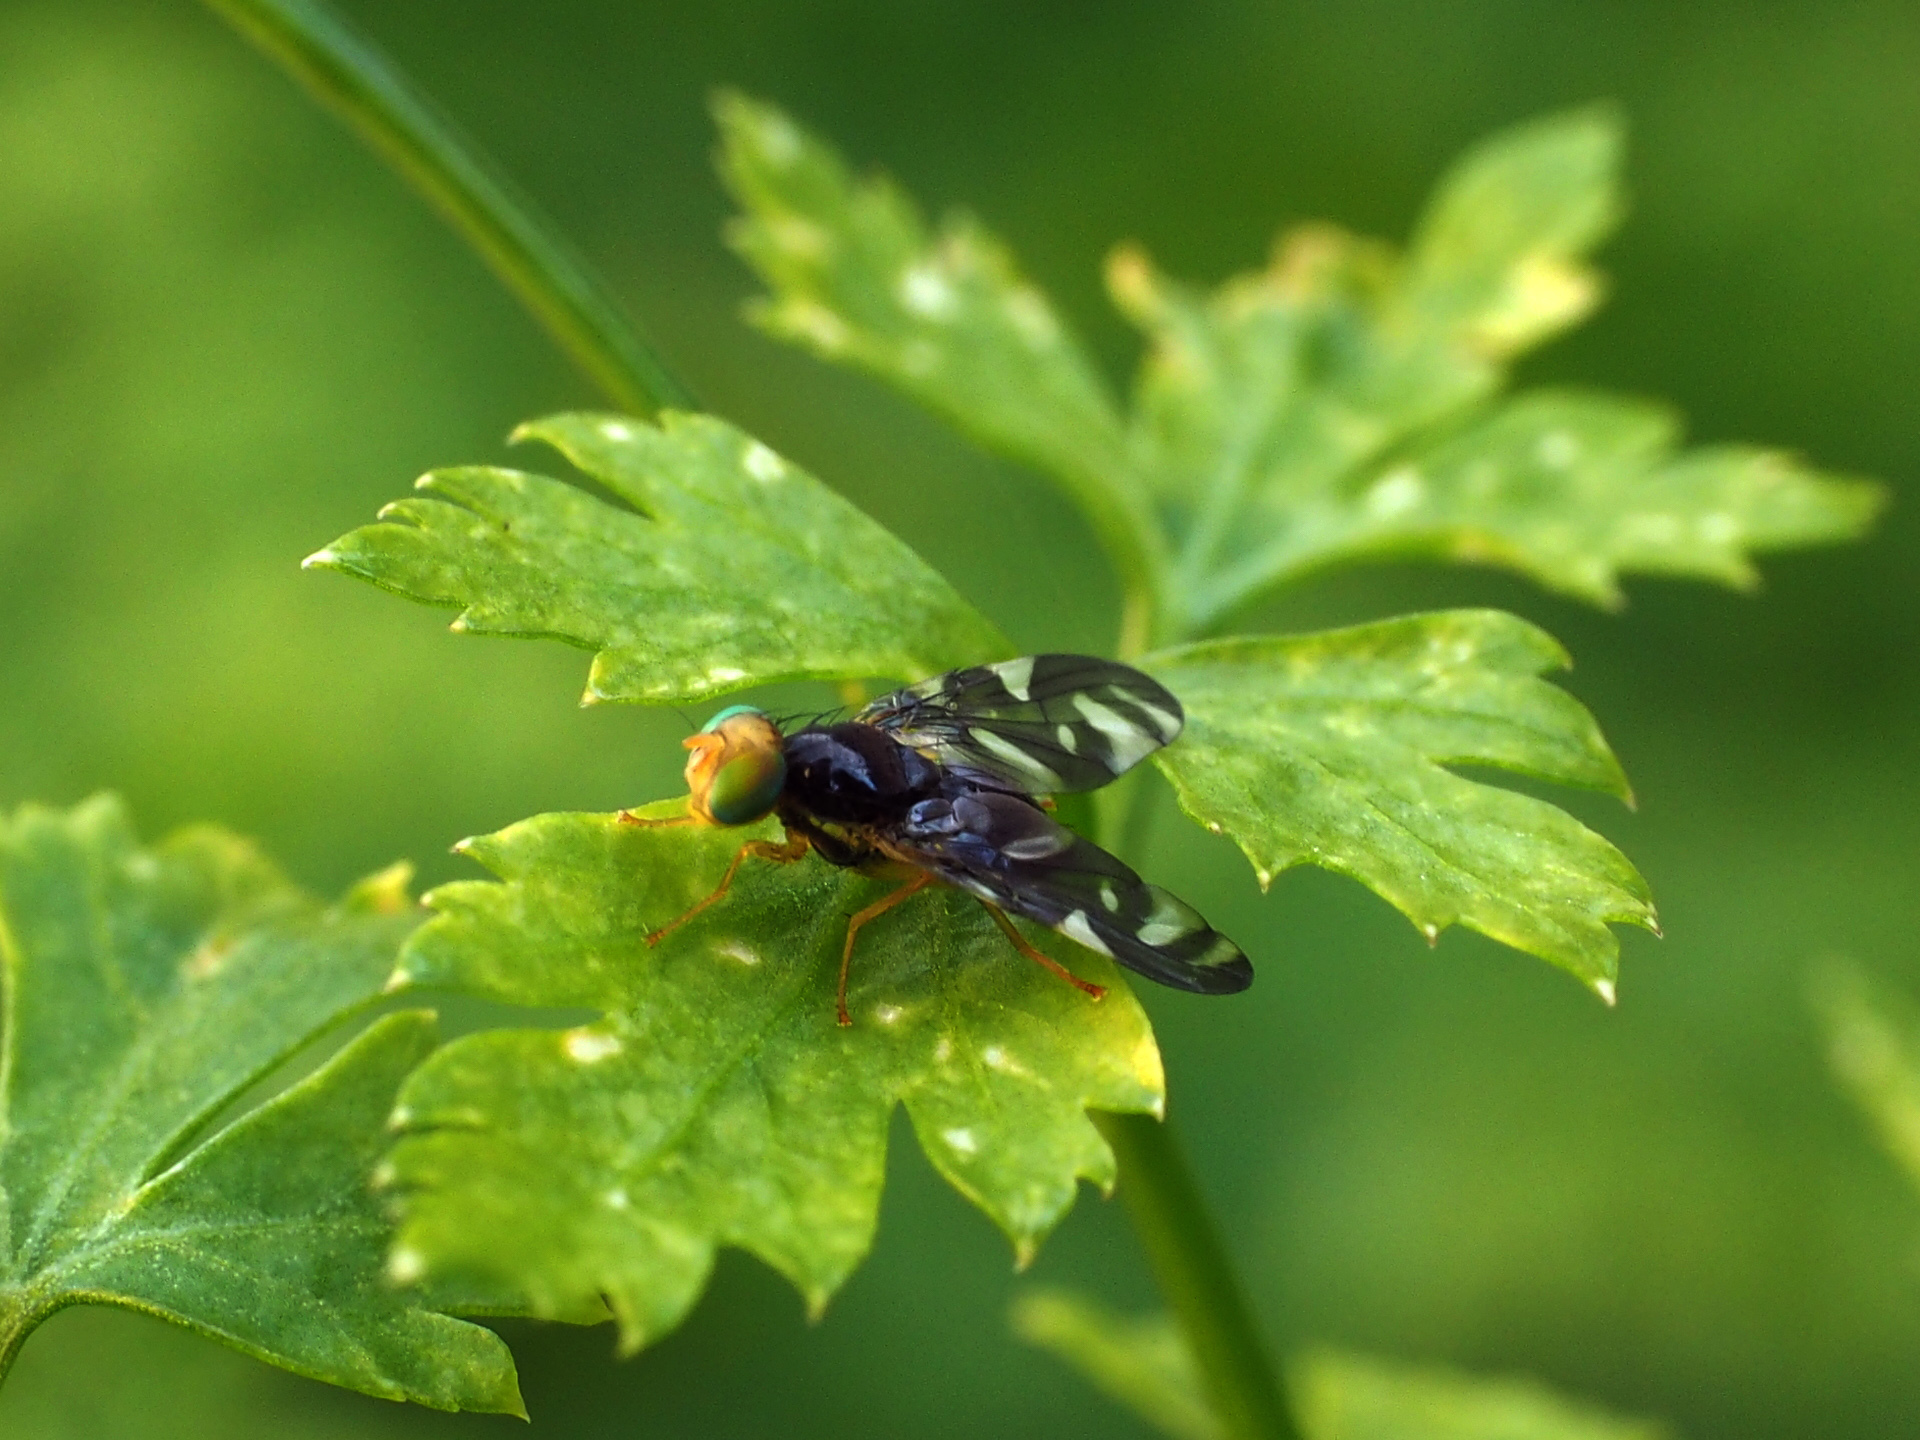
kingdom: Animalia
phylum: Arthropoda
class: Insecta
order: Diptera
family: Tephritidae
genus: Euleia
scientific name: Euleia heraclei
